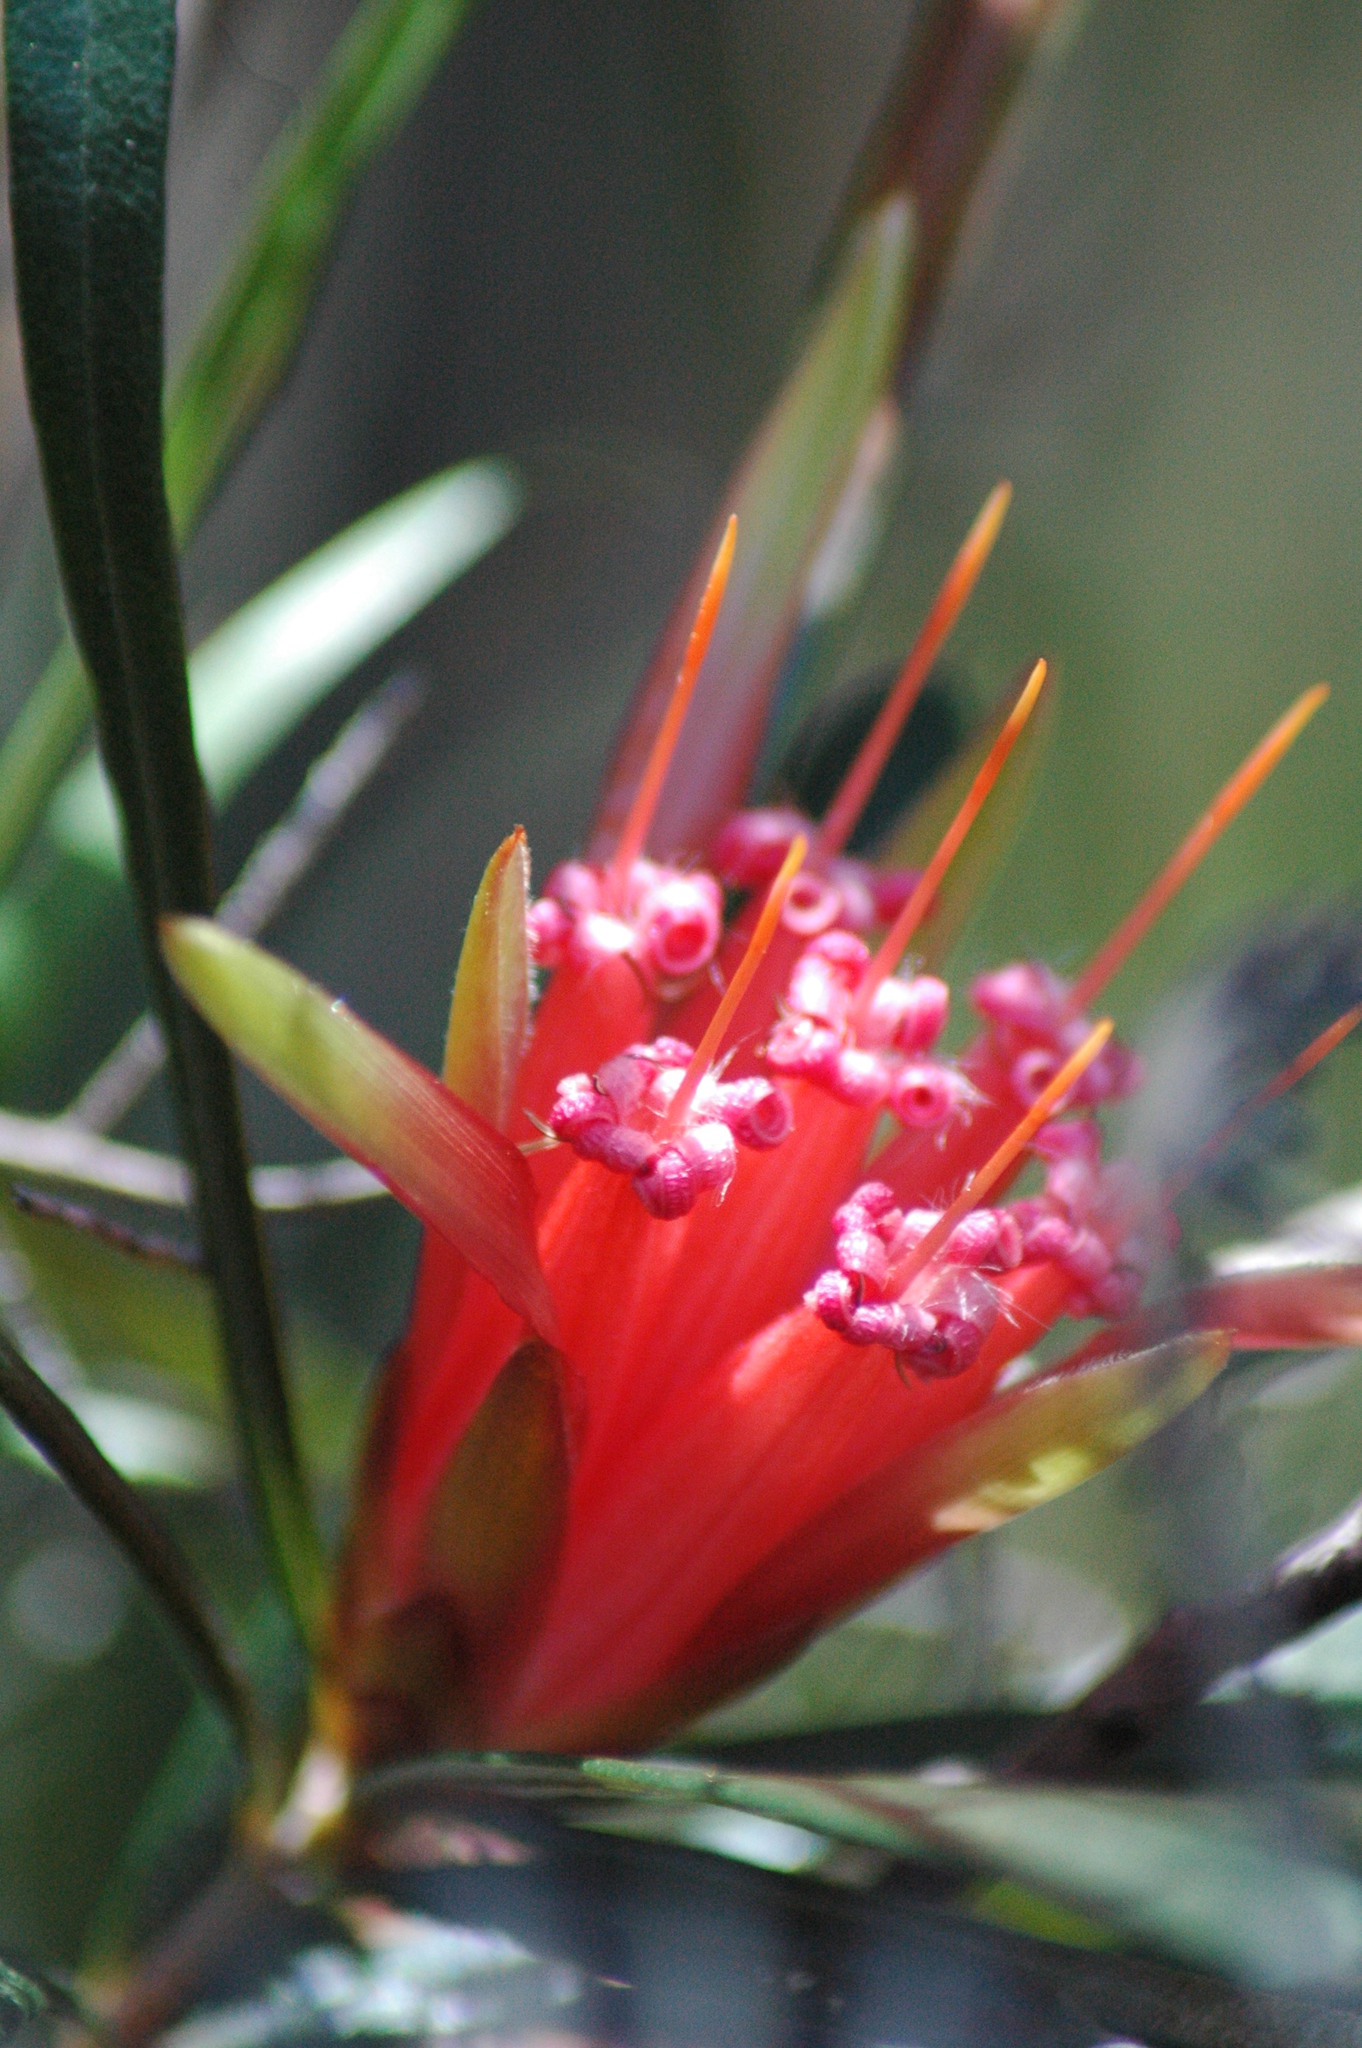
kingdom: Plantae
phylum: Tracheophyta
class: Magnoliopsida
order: Proteales
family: Proteaceae
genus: Lambertia
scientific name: Lambertia formosa
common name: Mountain-devil
